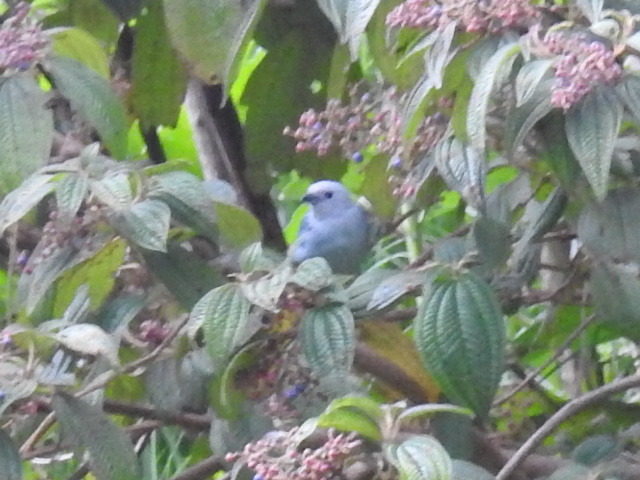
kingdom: Animalia
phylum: Chordata
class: Aves
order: Passeriformes
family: Thraupidae
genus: Thraupis
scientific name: Thraupis episcopus
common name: Blue-grey tanager
